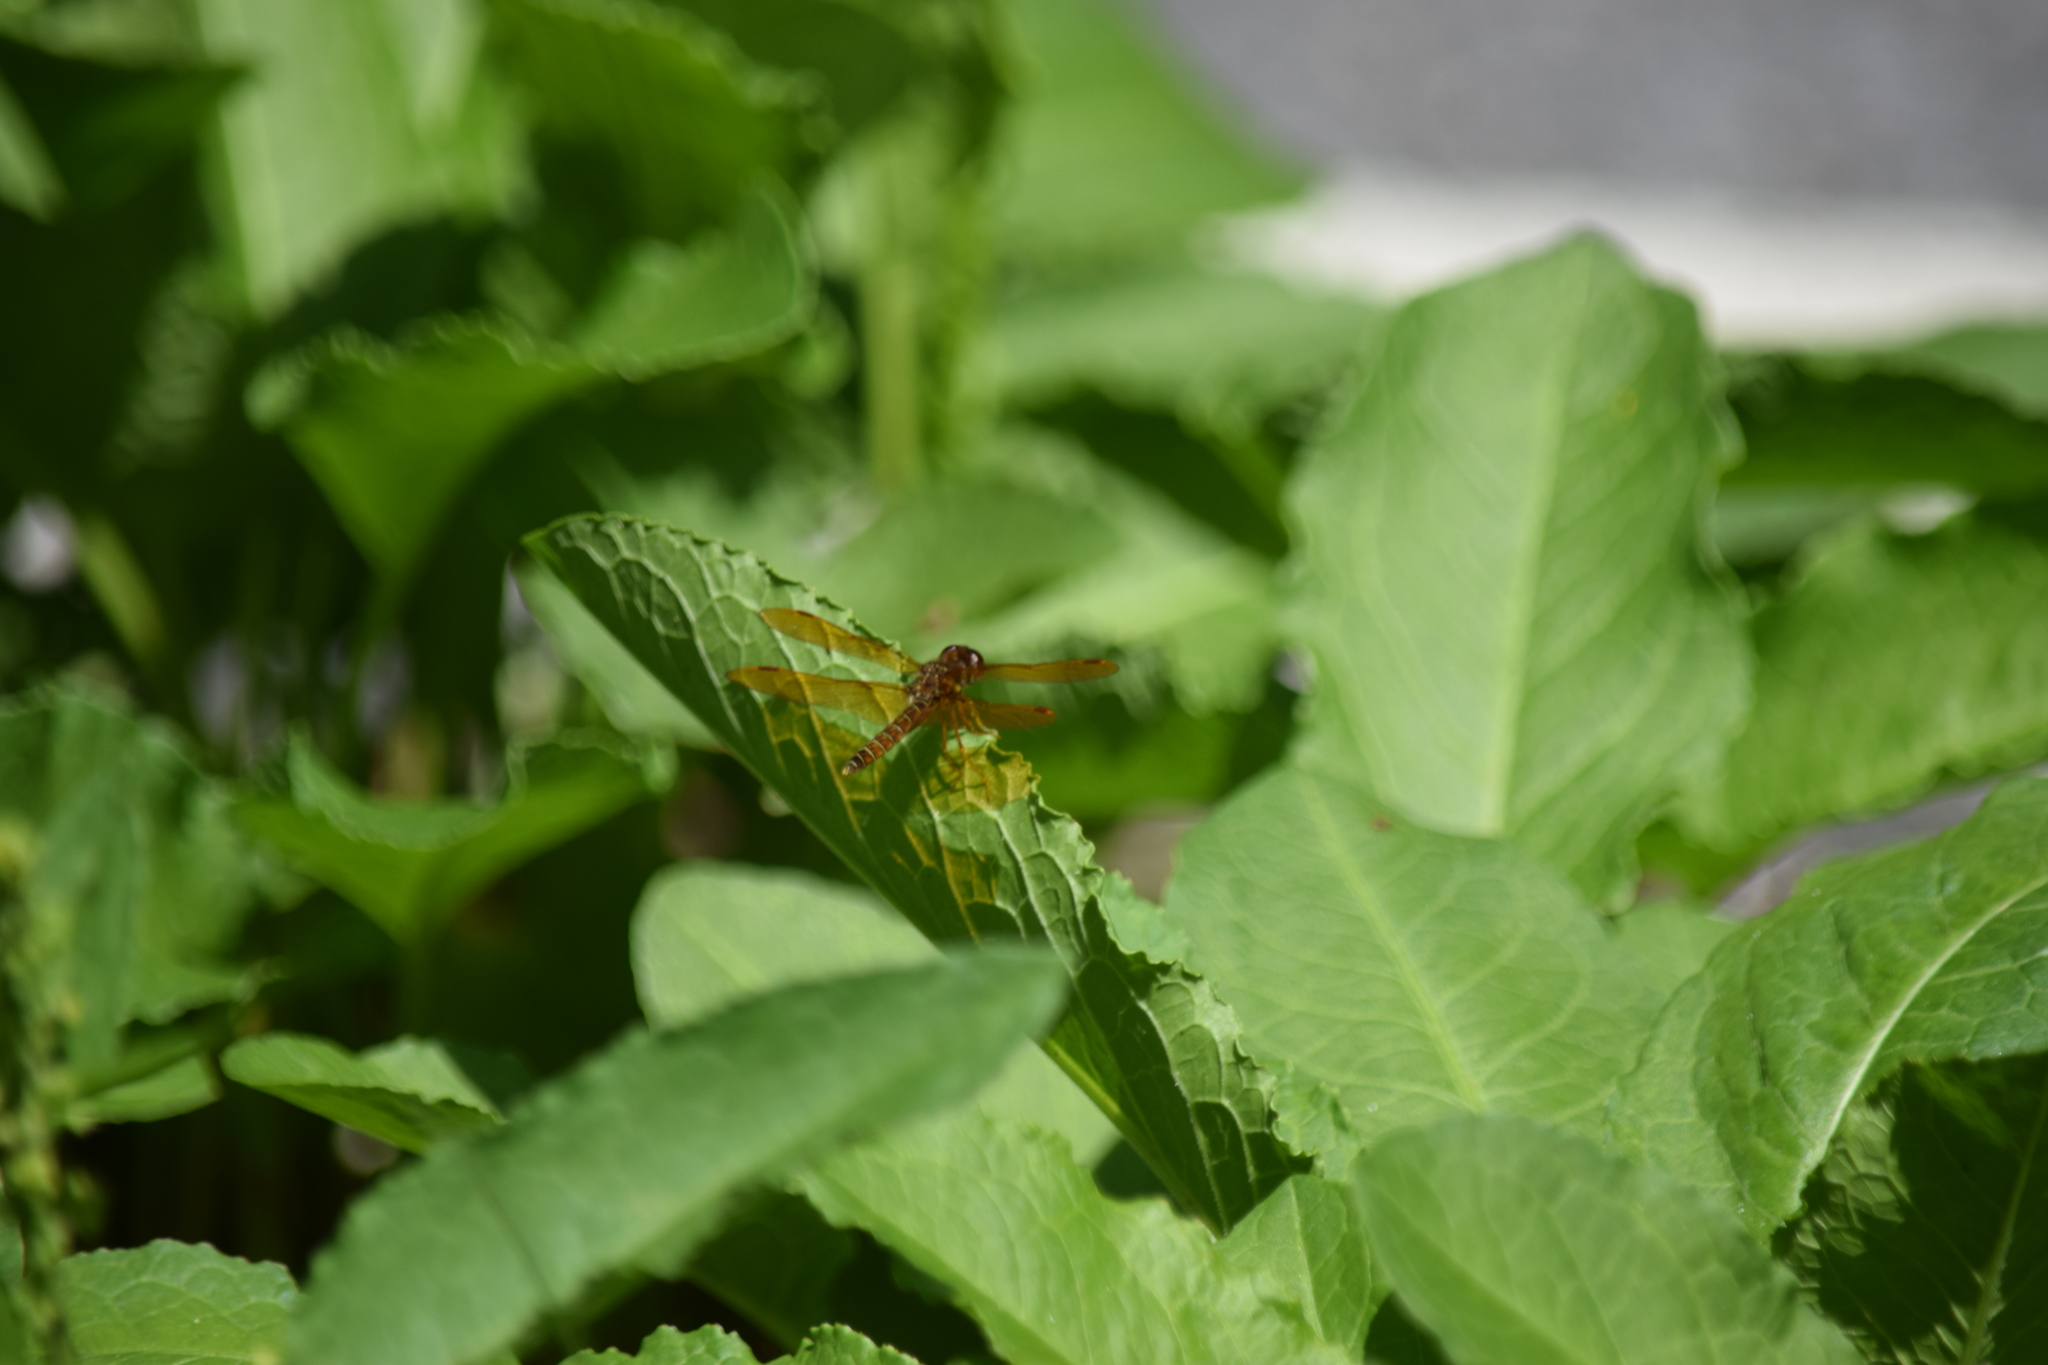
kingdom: Animalia
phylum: Arthropoda
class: Insecta
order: Odonata
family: Libellulidae
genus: Perithemis
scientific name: Perithemis tenera
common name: Eastern amberwing
